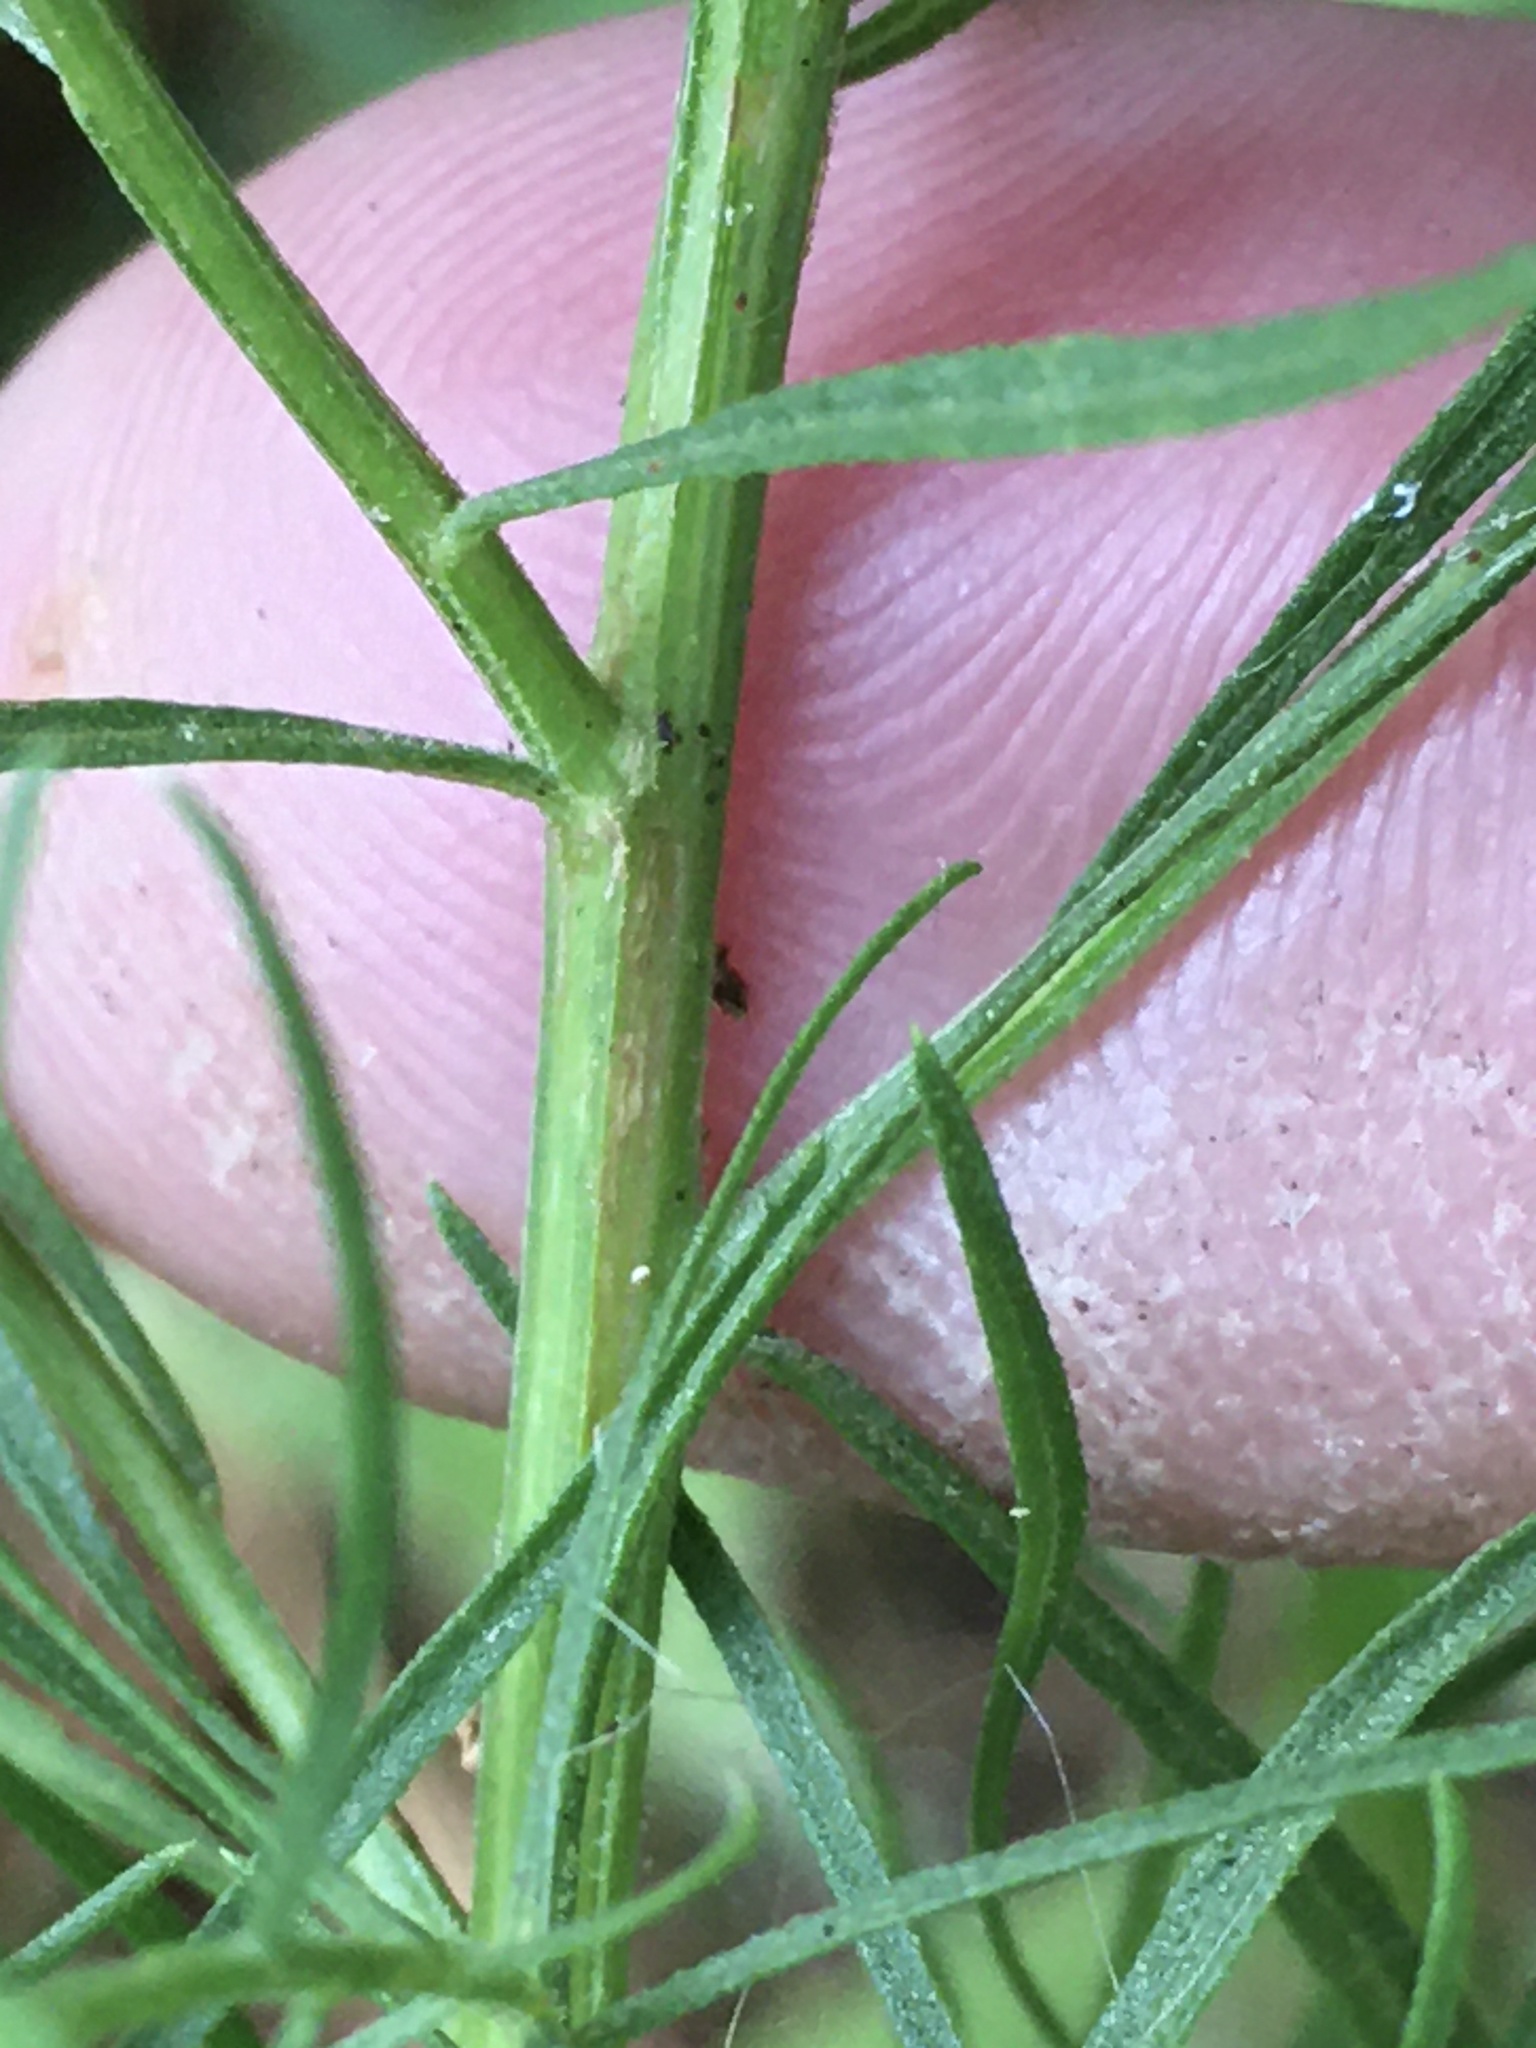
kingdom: Plantae
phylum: Tracheophyta
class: Magnoliopsida
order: Asterales
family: Asteraceae
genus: Euthamia
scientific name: Euthamia caroliniana
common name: Coastal plain goldentop
